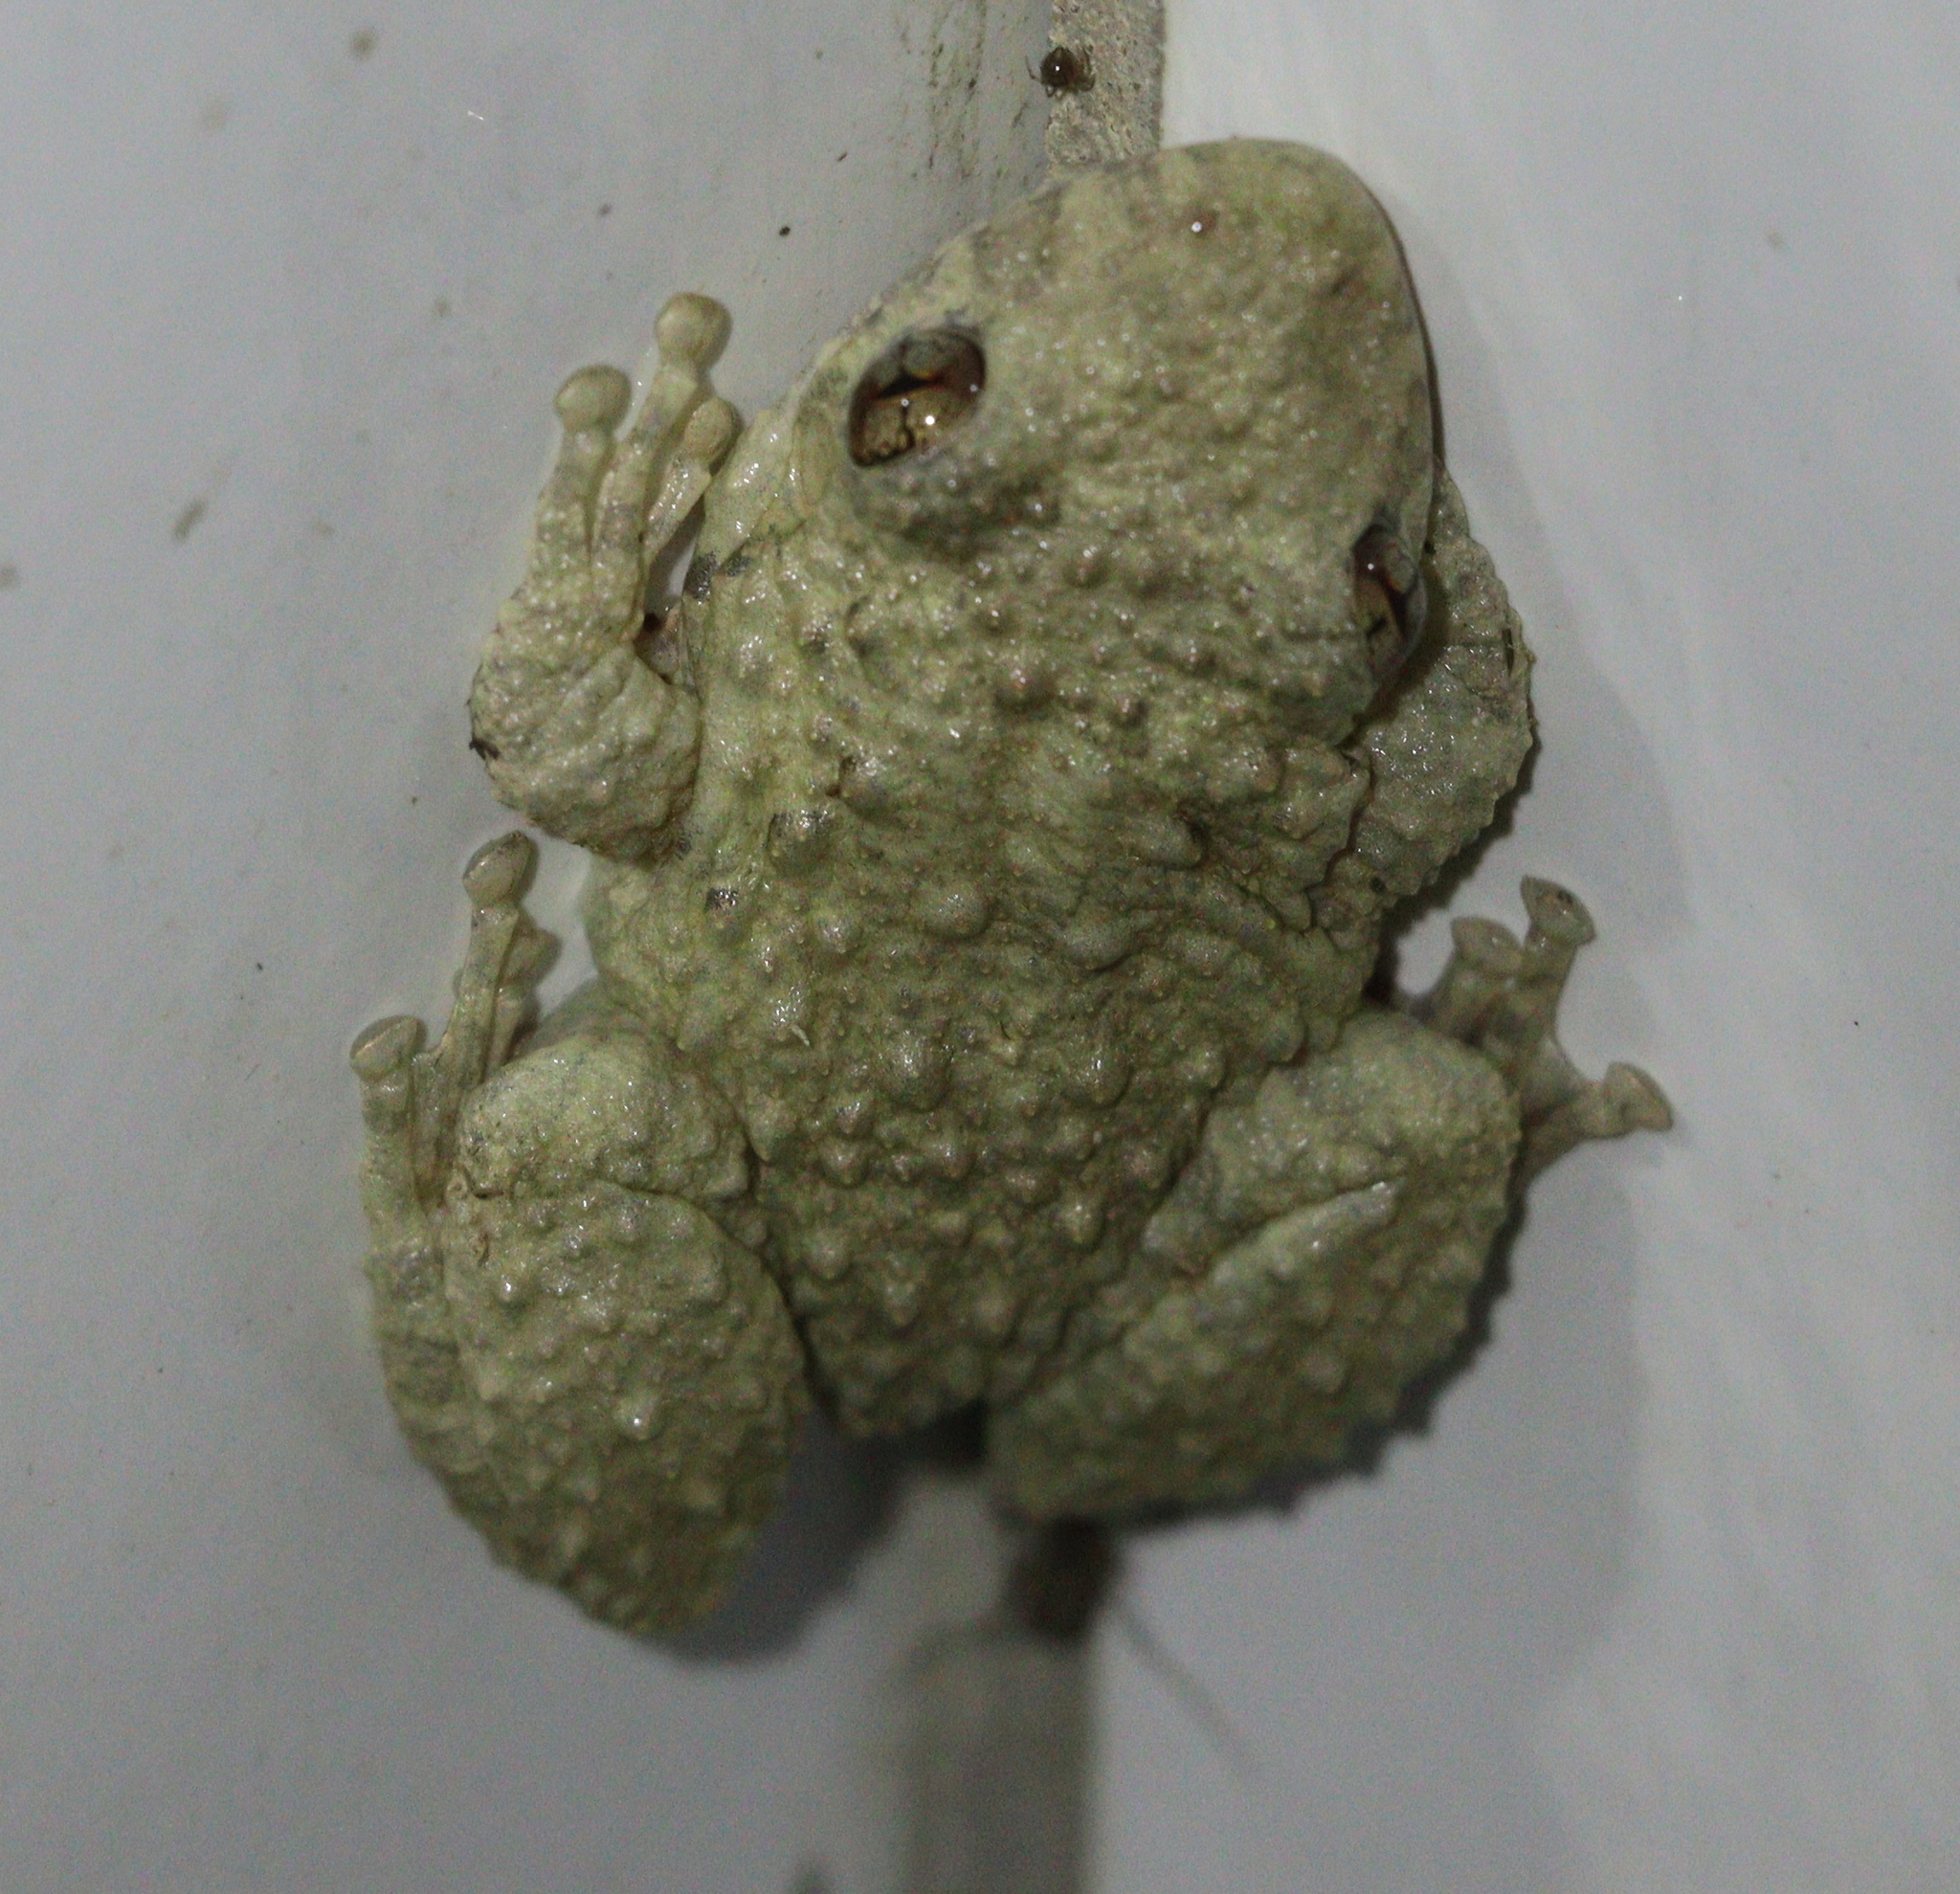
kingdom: Animalia
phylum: Chordata
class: Amphibia
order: Anura
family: Hylidae
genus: Scinax
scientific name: Scinax acuminatus
